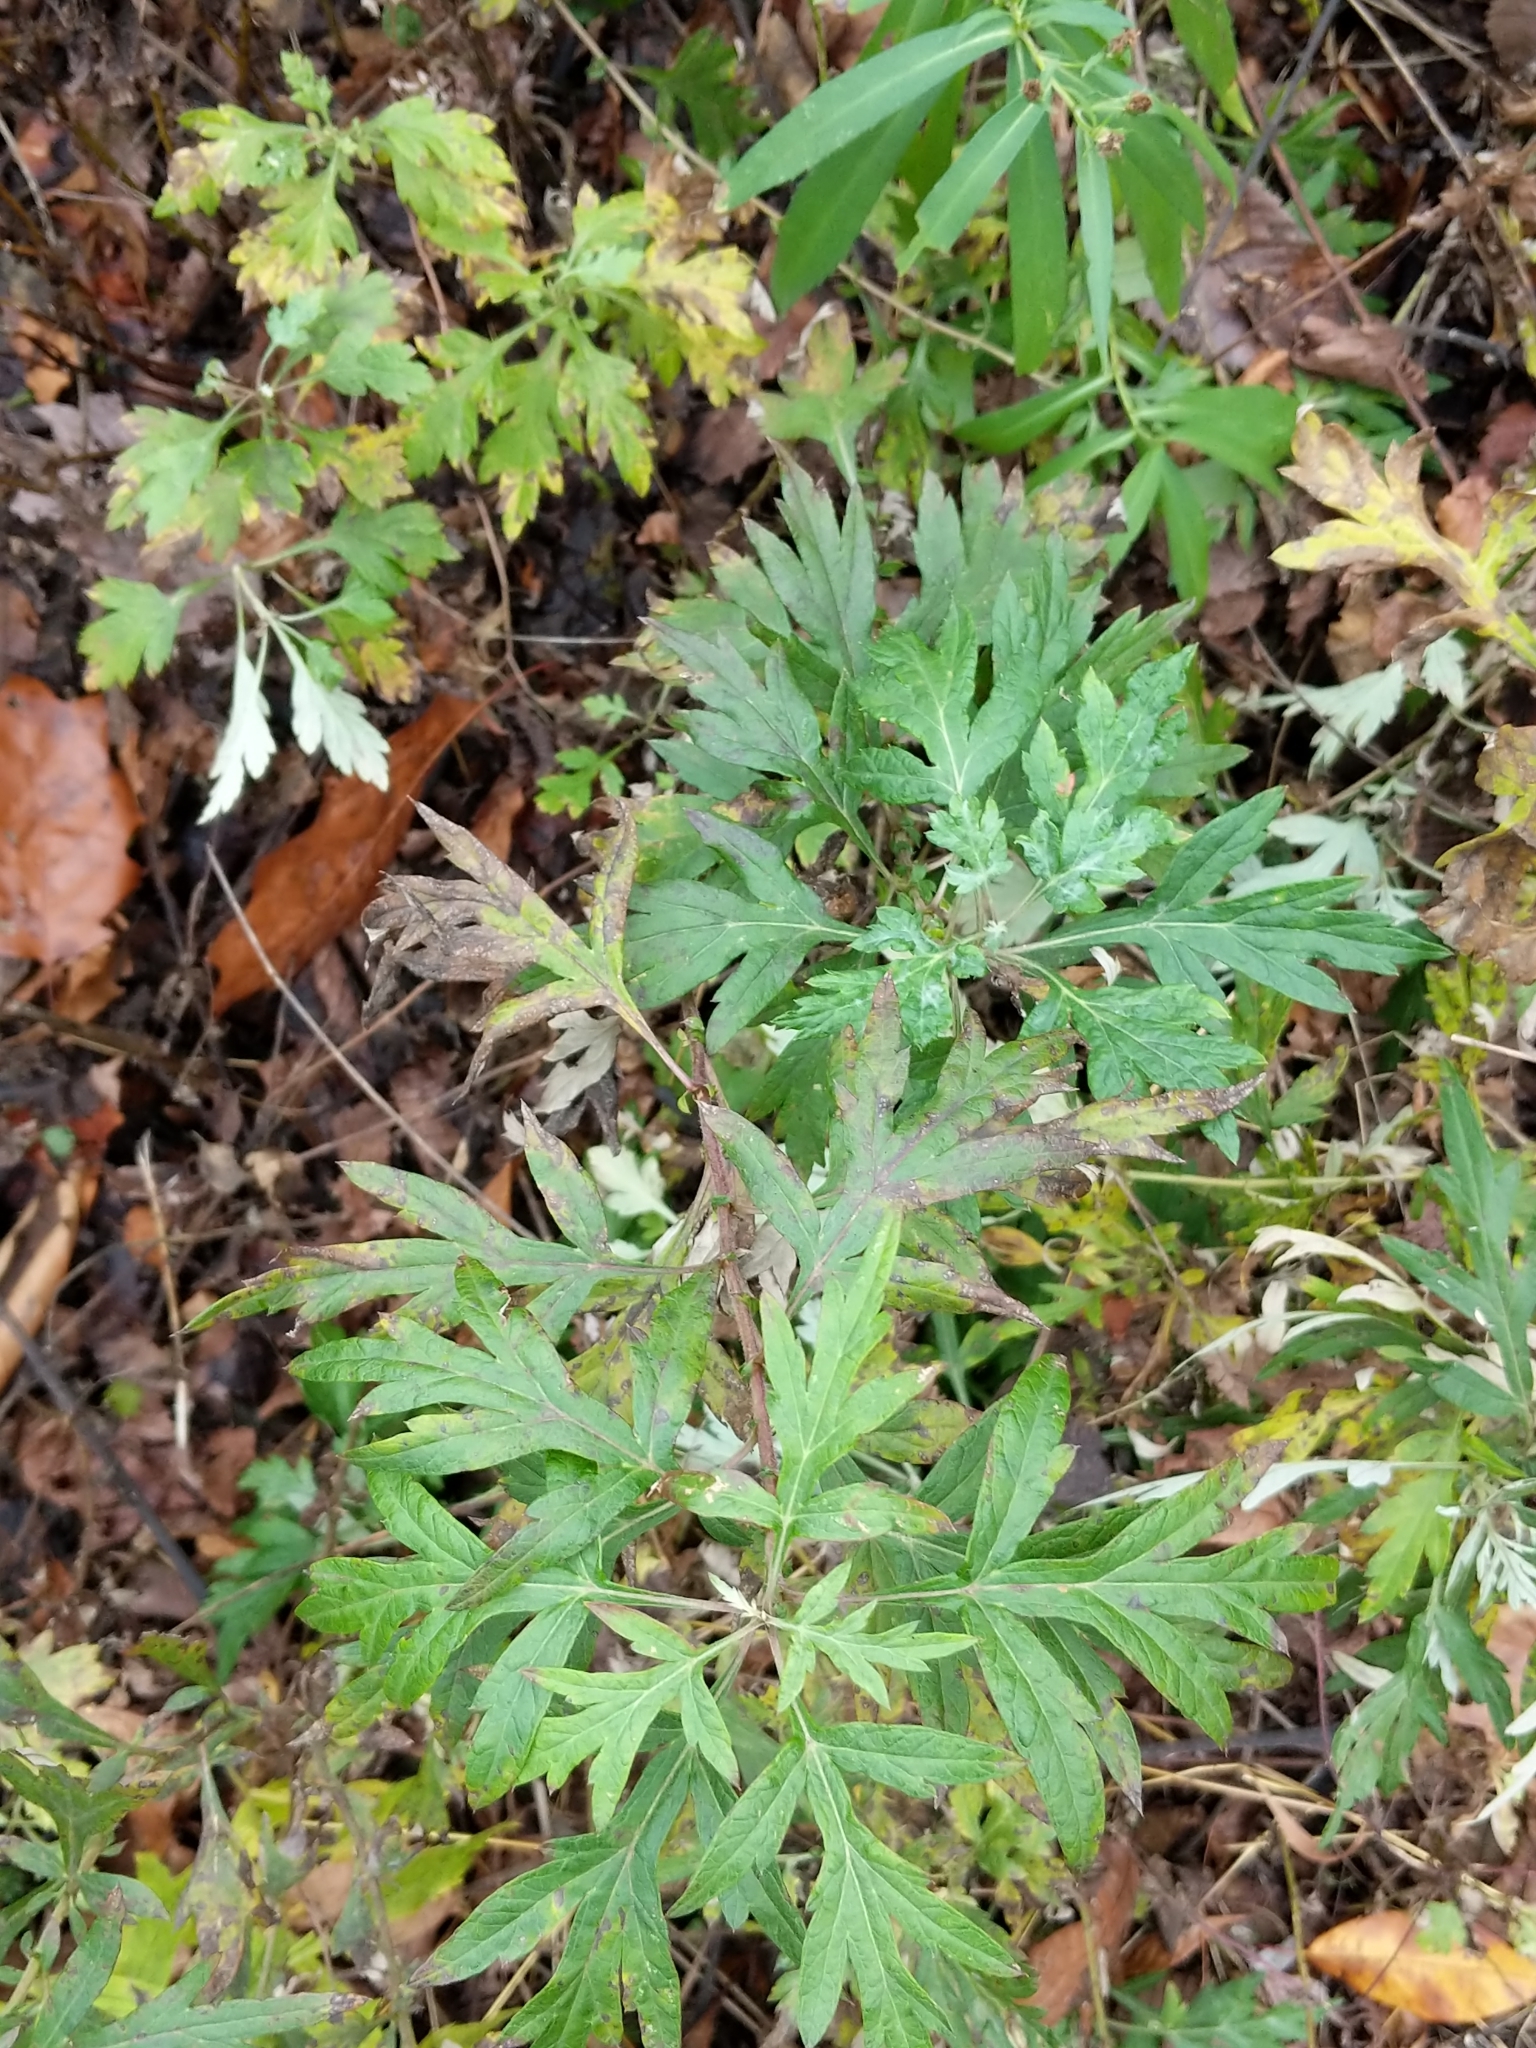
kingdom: Plantae
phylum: Tracheophyta
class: Magnoliopsida
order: Asterales
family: Asteraceae
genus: Artemisia
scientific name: Artemisia vulgaris
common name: Mugwort
